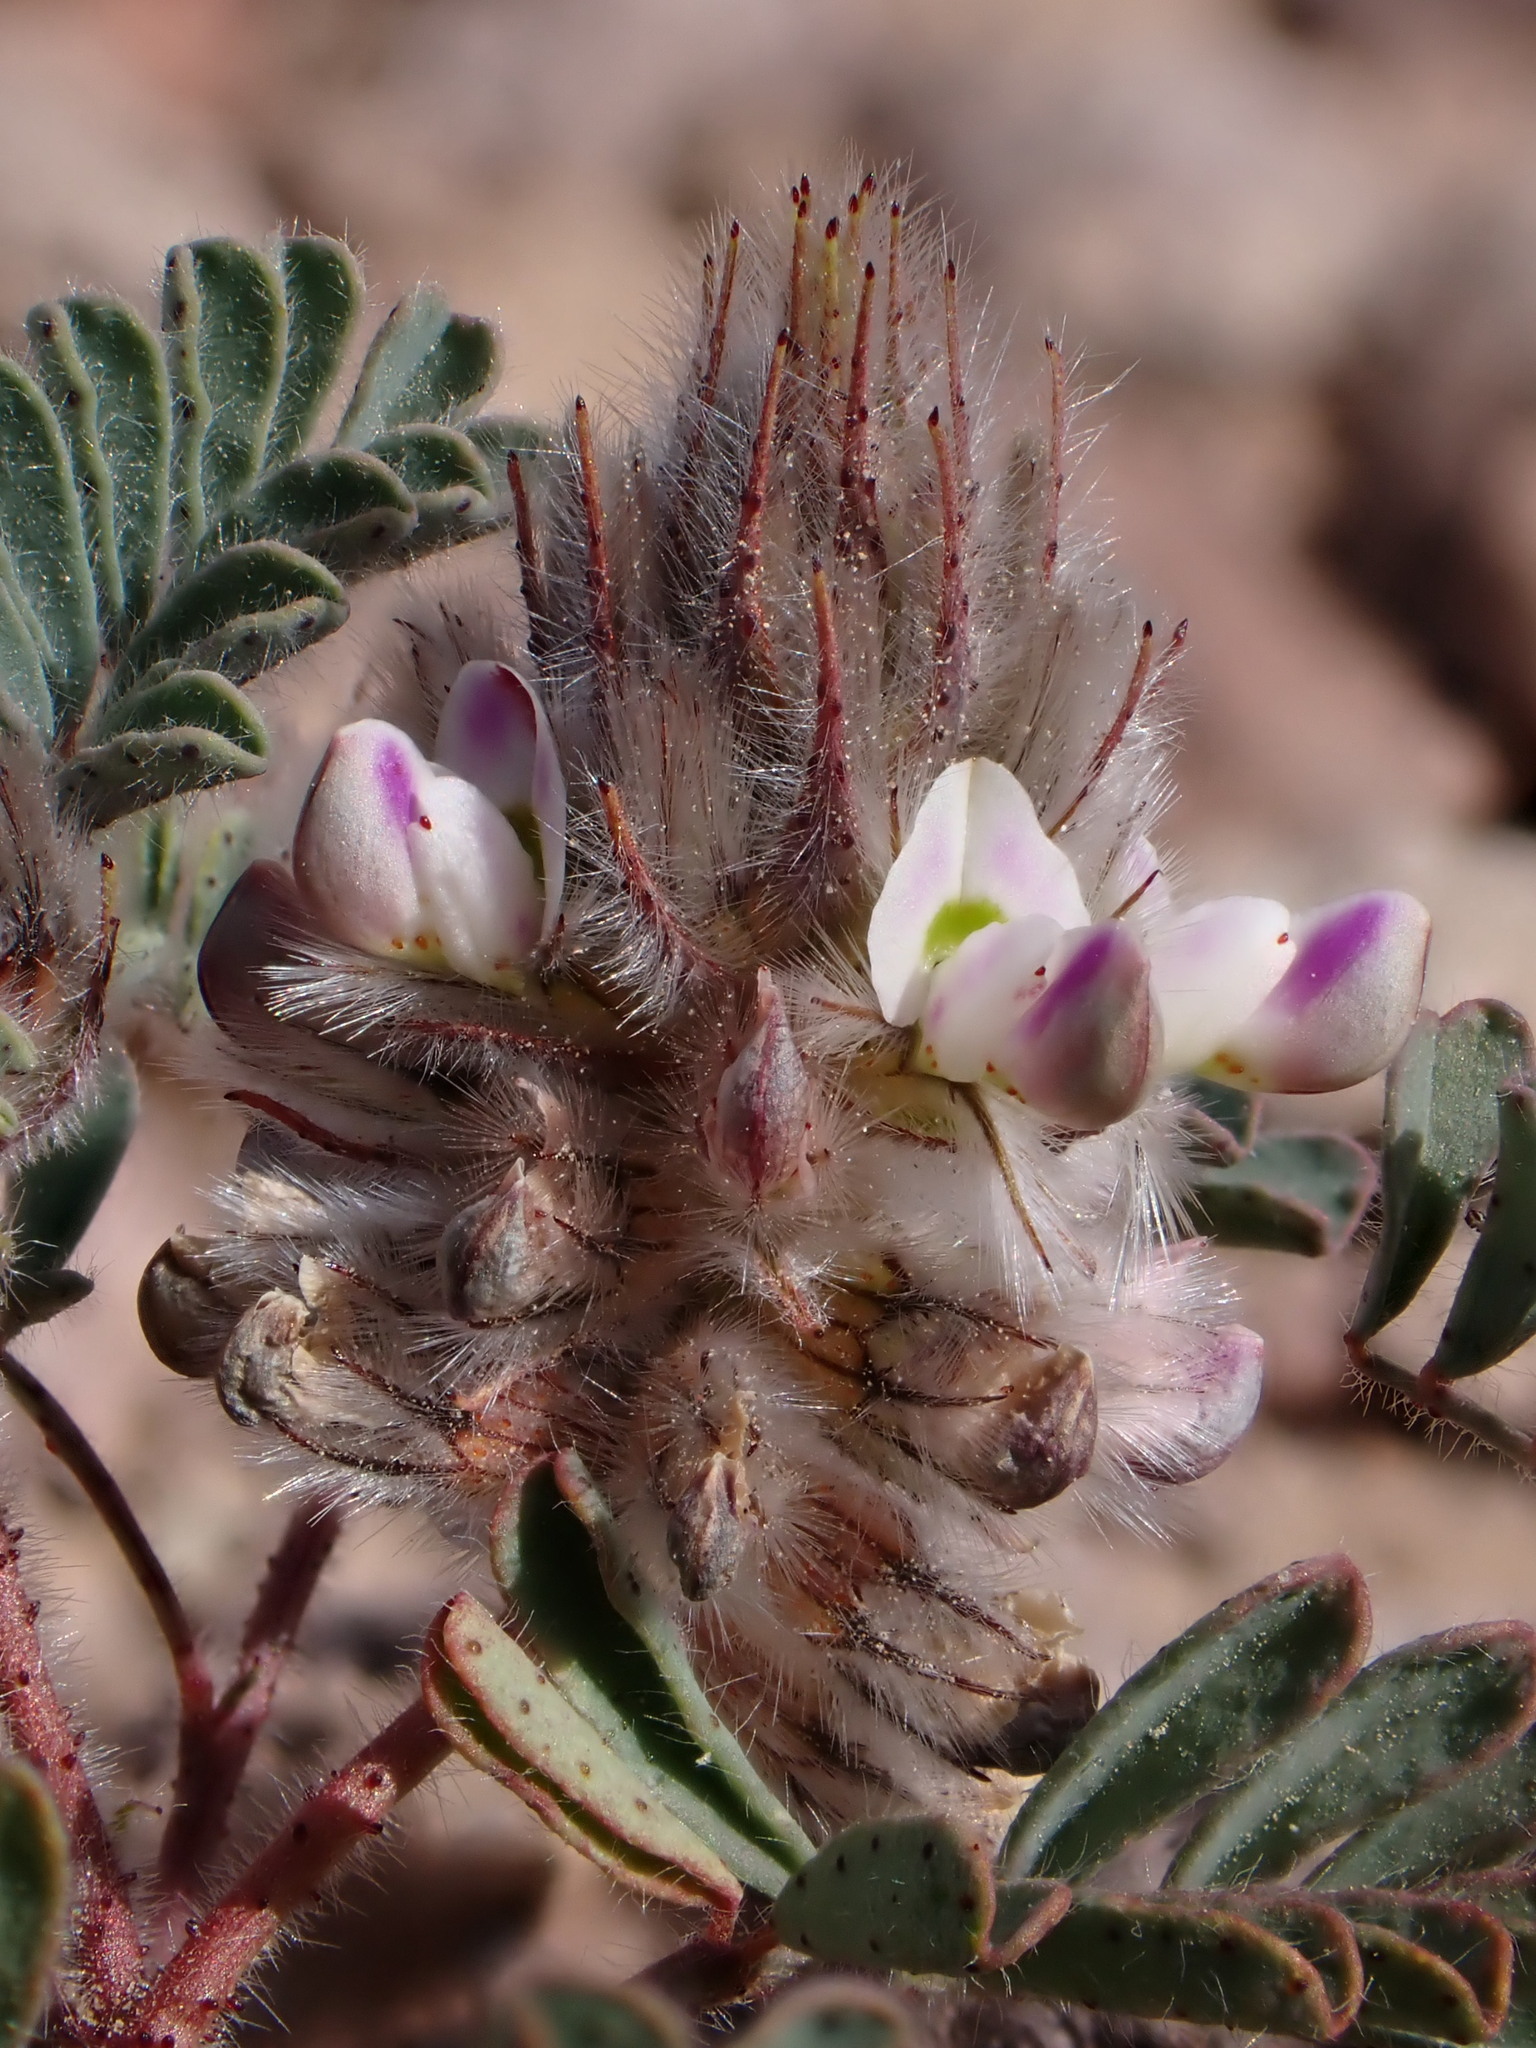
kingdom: Plantae
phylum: Tracheophyta
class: Magnoliopsida
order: Fabales
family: Fabaceae
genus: Dalea
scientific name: Dalea mollis
